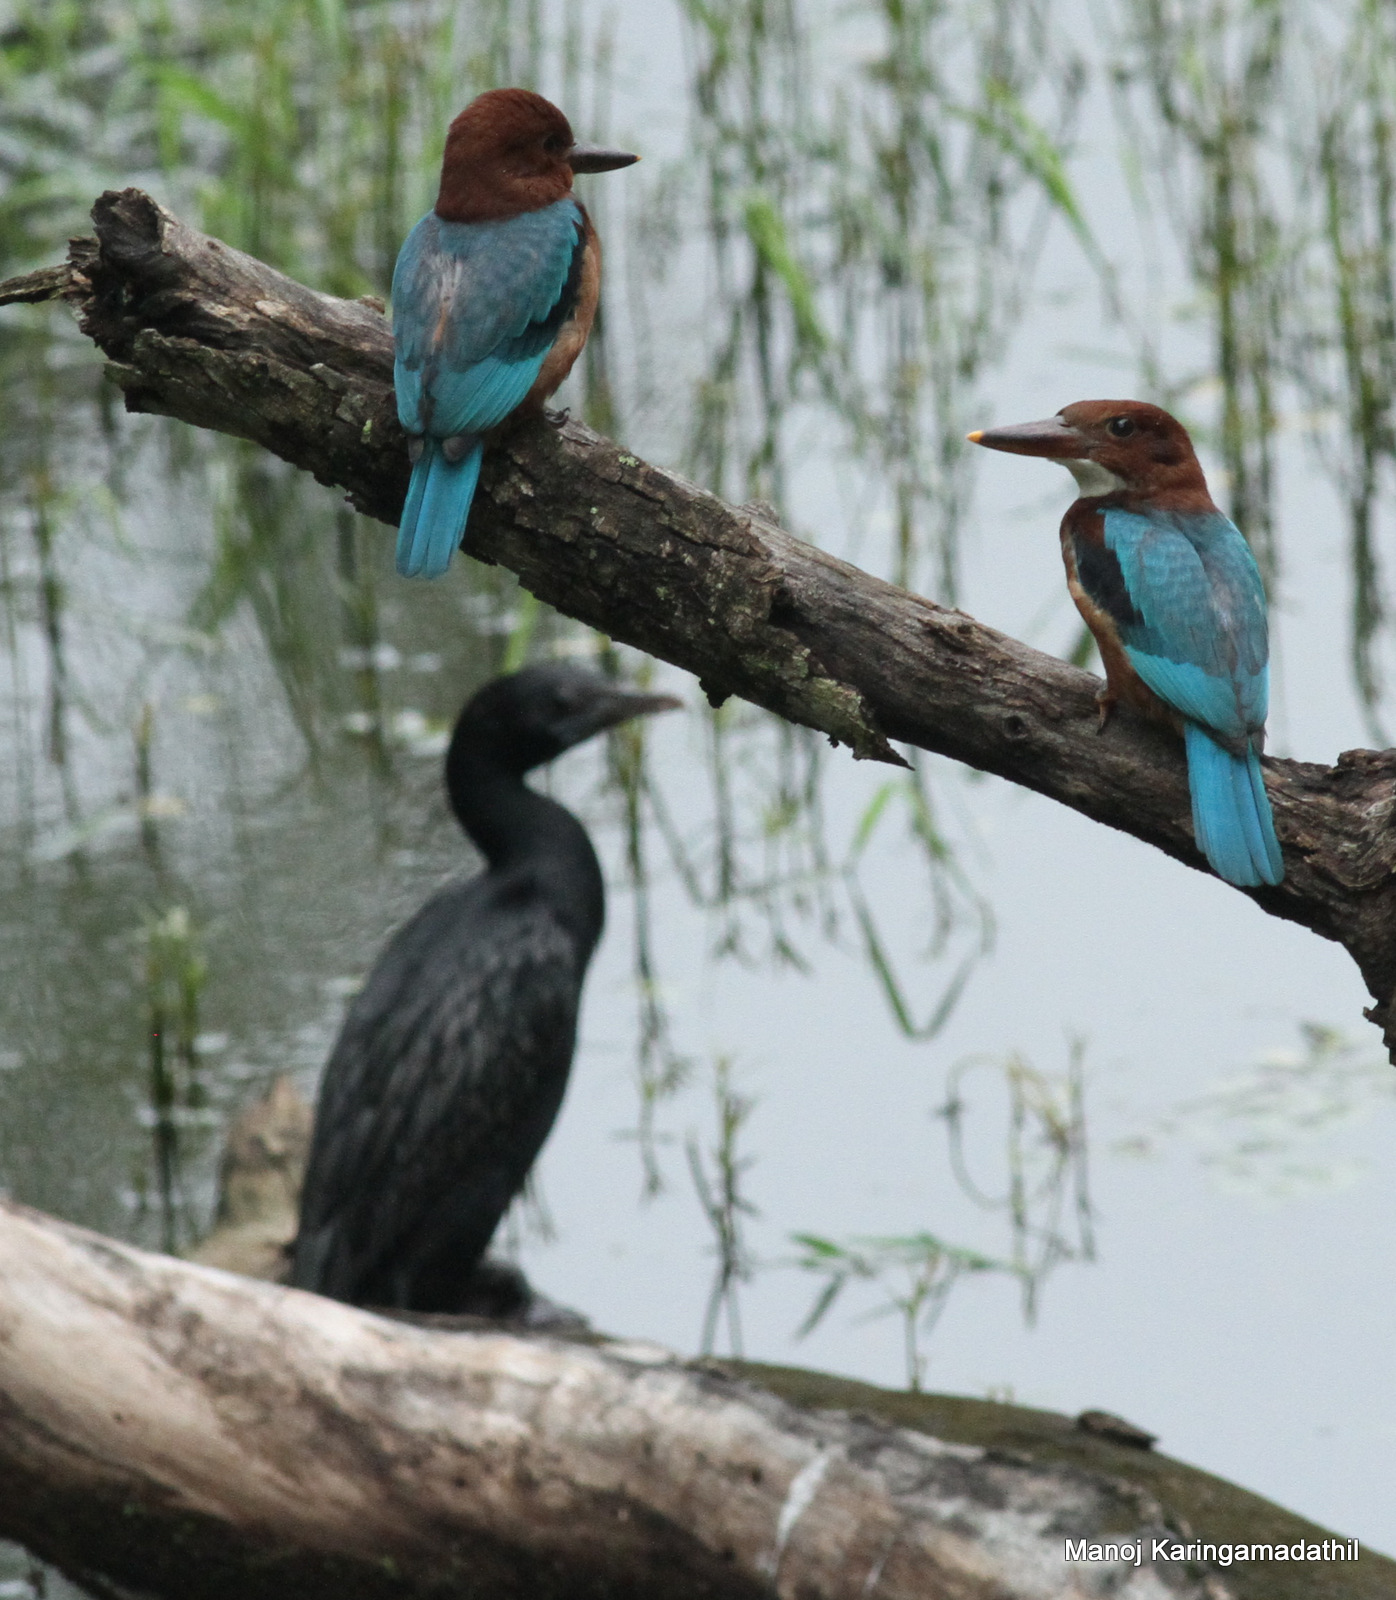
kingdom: Animalia
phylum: Chordata
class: Aves
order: Suliformes
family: Phalacrocoracidae
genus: Microcarbo
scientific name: Microcarbo niger
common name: Little cormorant
